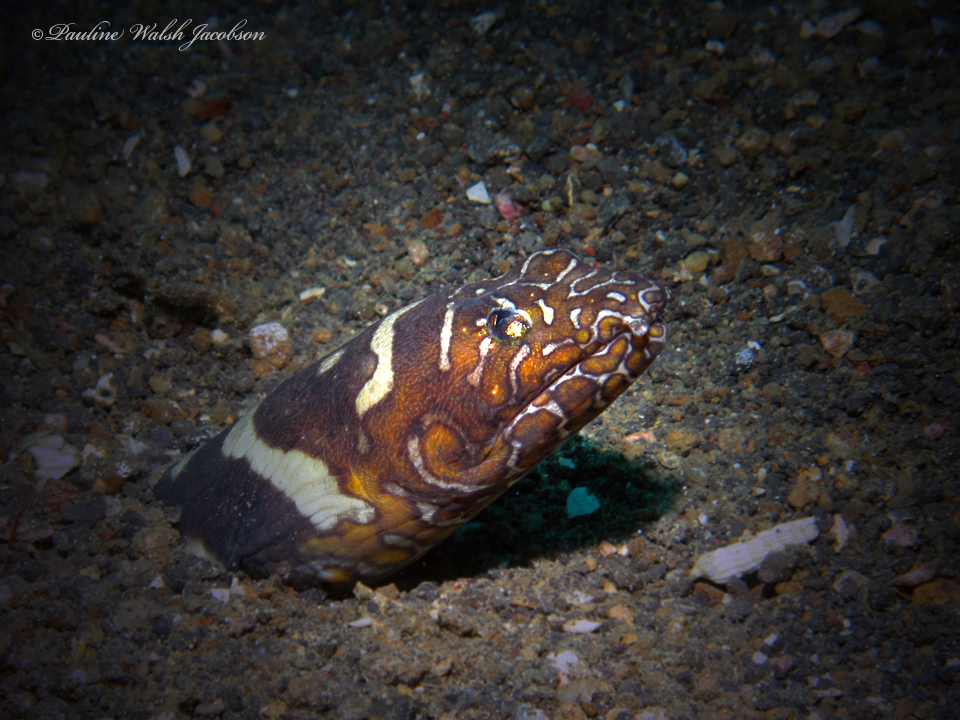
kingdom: Animalia
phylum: Chordata
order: Anguilliformes
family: Ophichthidae
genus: Ophichthus
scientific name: Ophichthus bonaparti
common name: Napoleon snake eel
